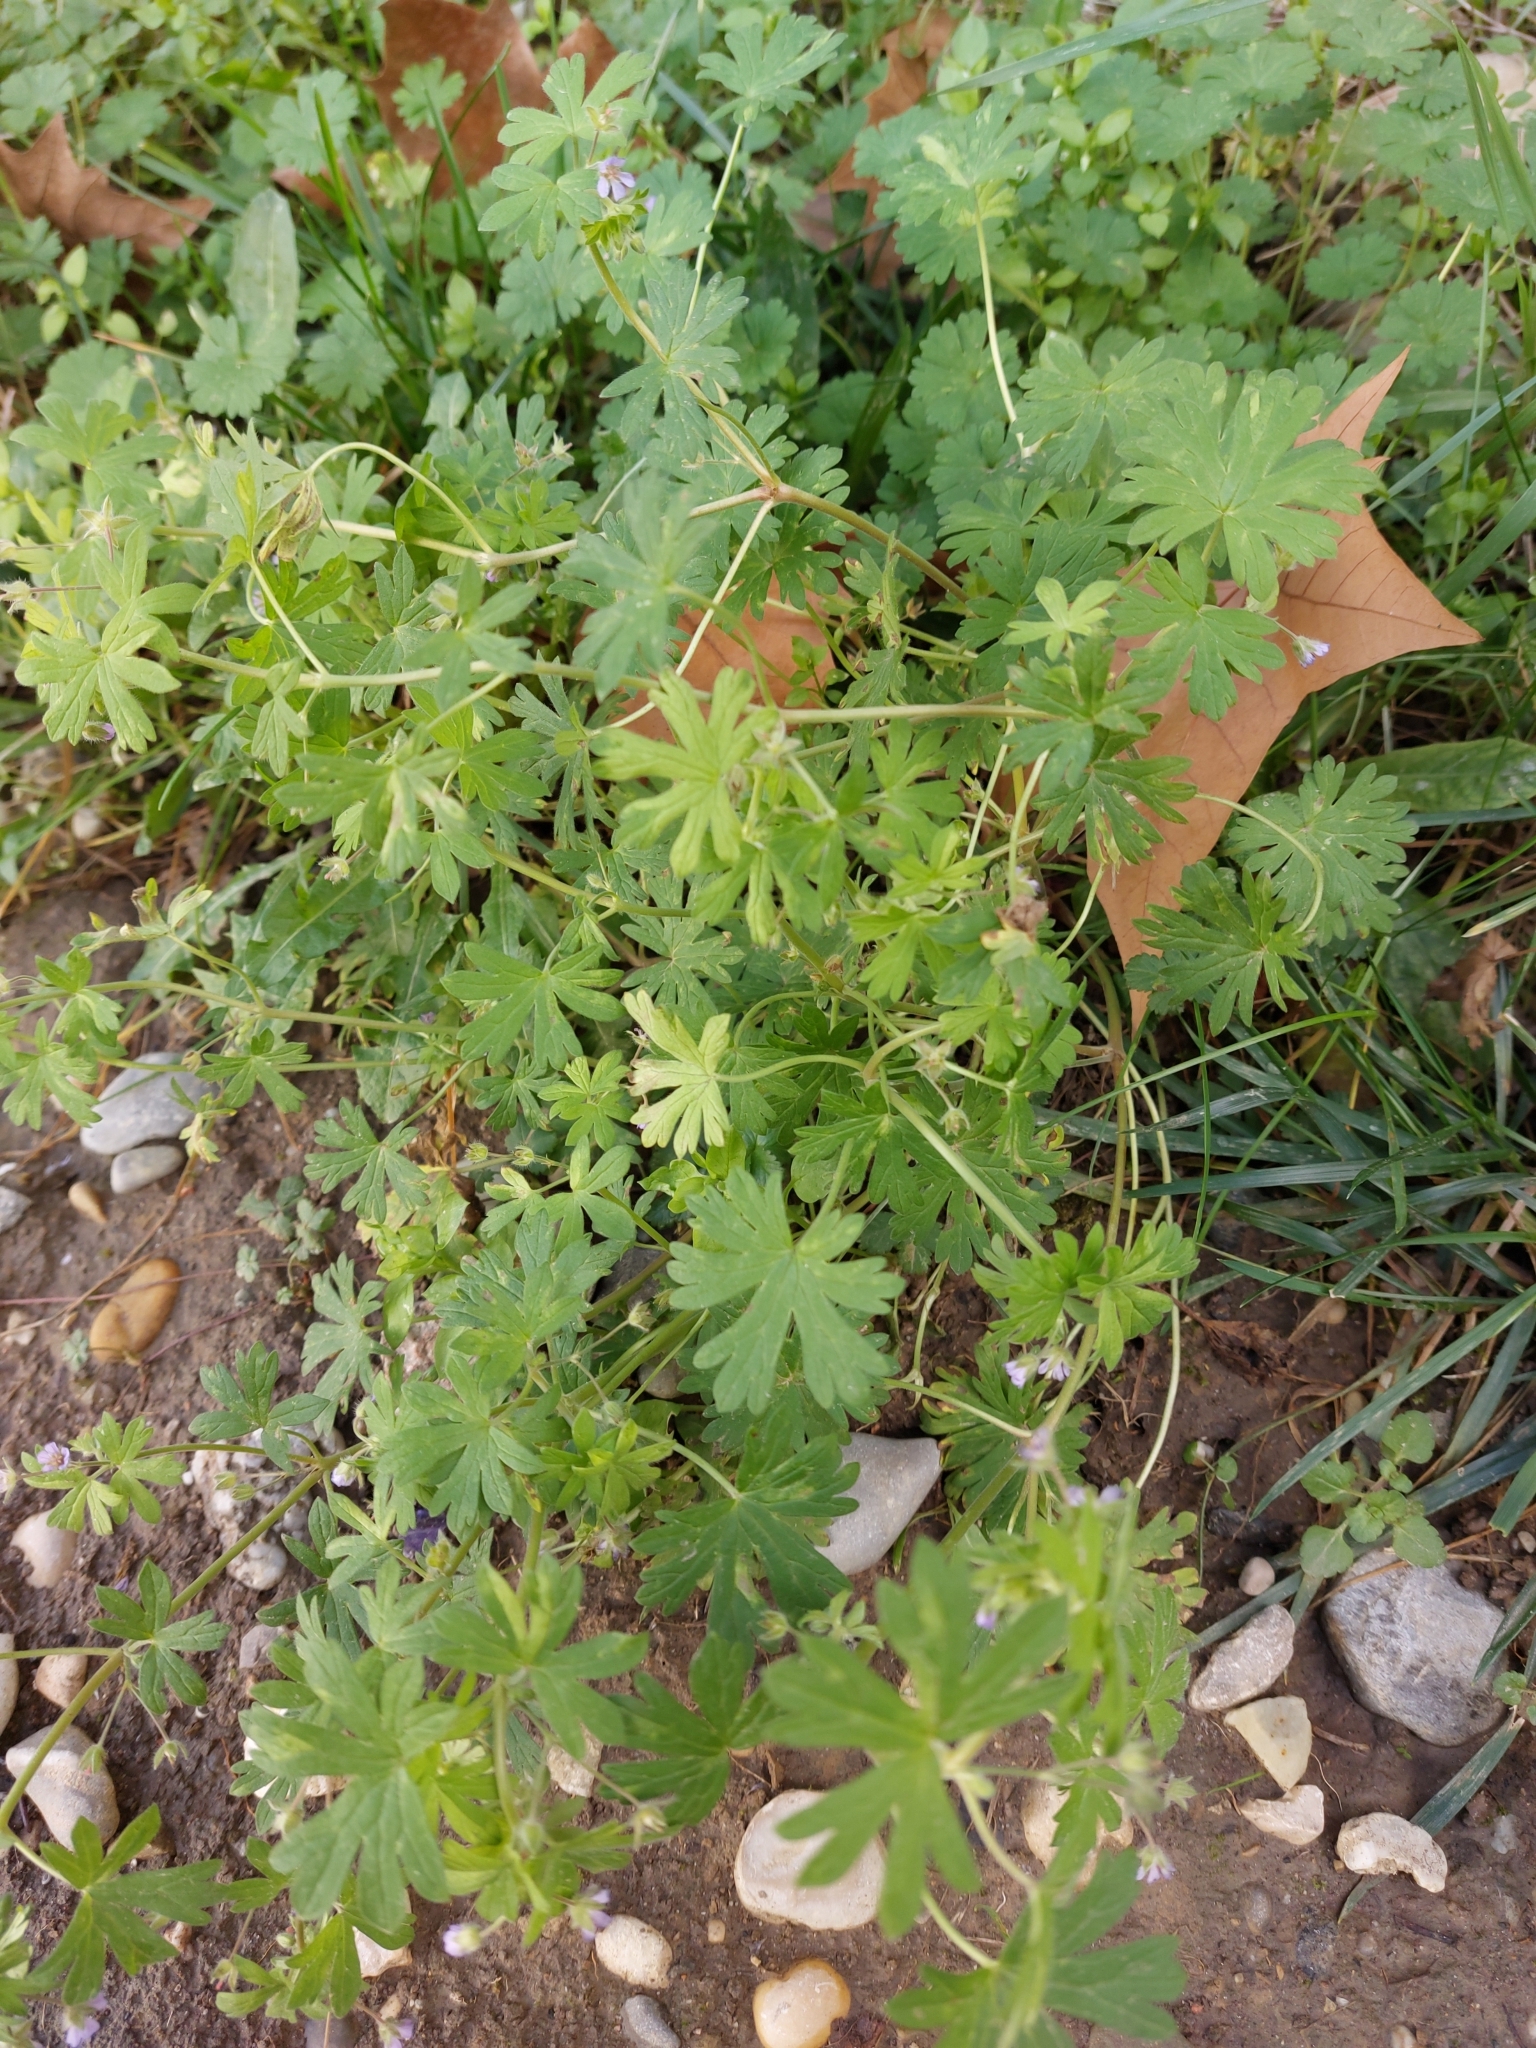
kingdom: Plantae
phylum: Tracheophyta
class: Magnoliopsida
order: Geraniales
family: Geraniaceae
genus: Geranium
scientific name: Geranium pusillum
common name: Small geranium
